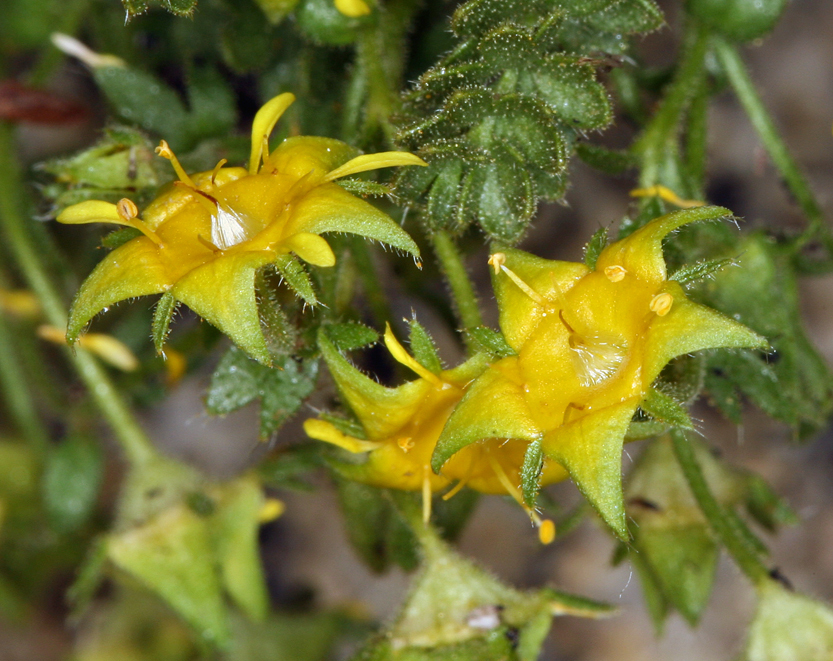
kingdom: Plantae
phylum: Tracheophyta
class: Magnoliopsida
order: Rosales
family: Rosaceae
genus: Potentilla
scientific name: Potentilla shockleyi
